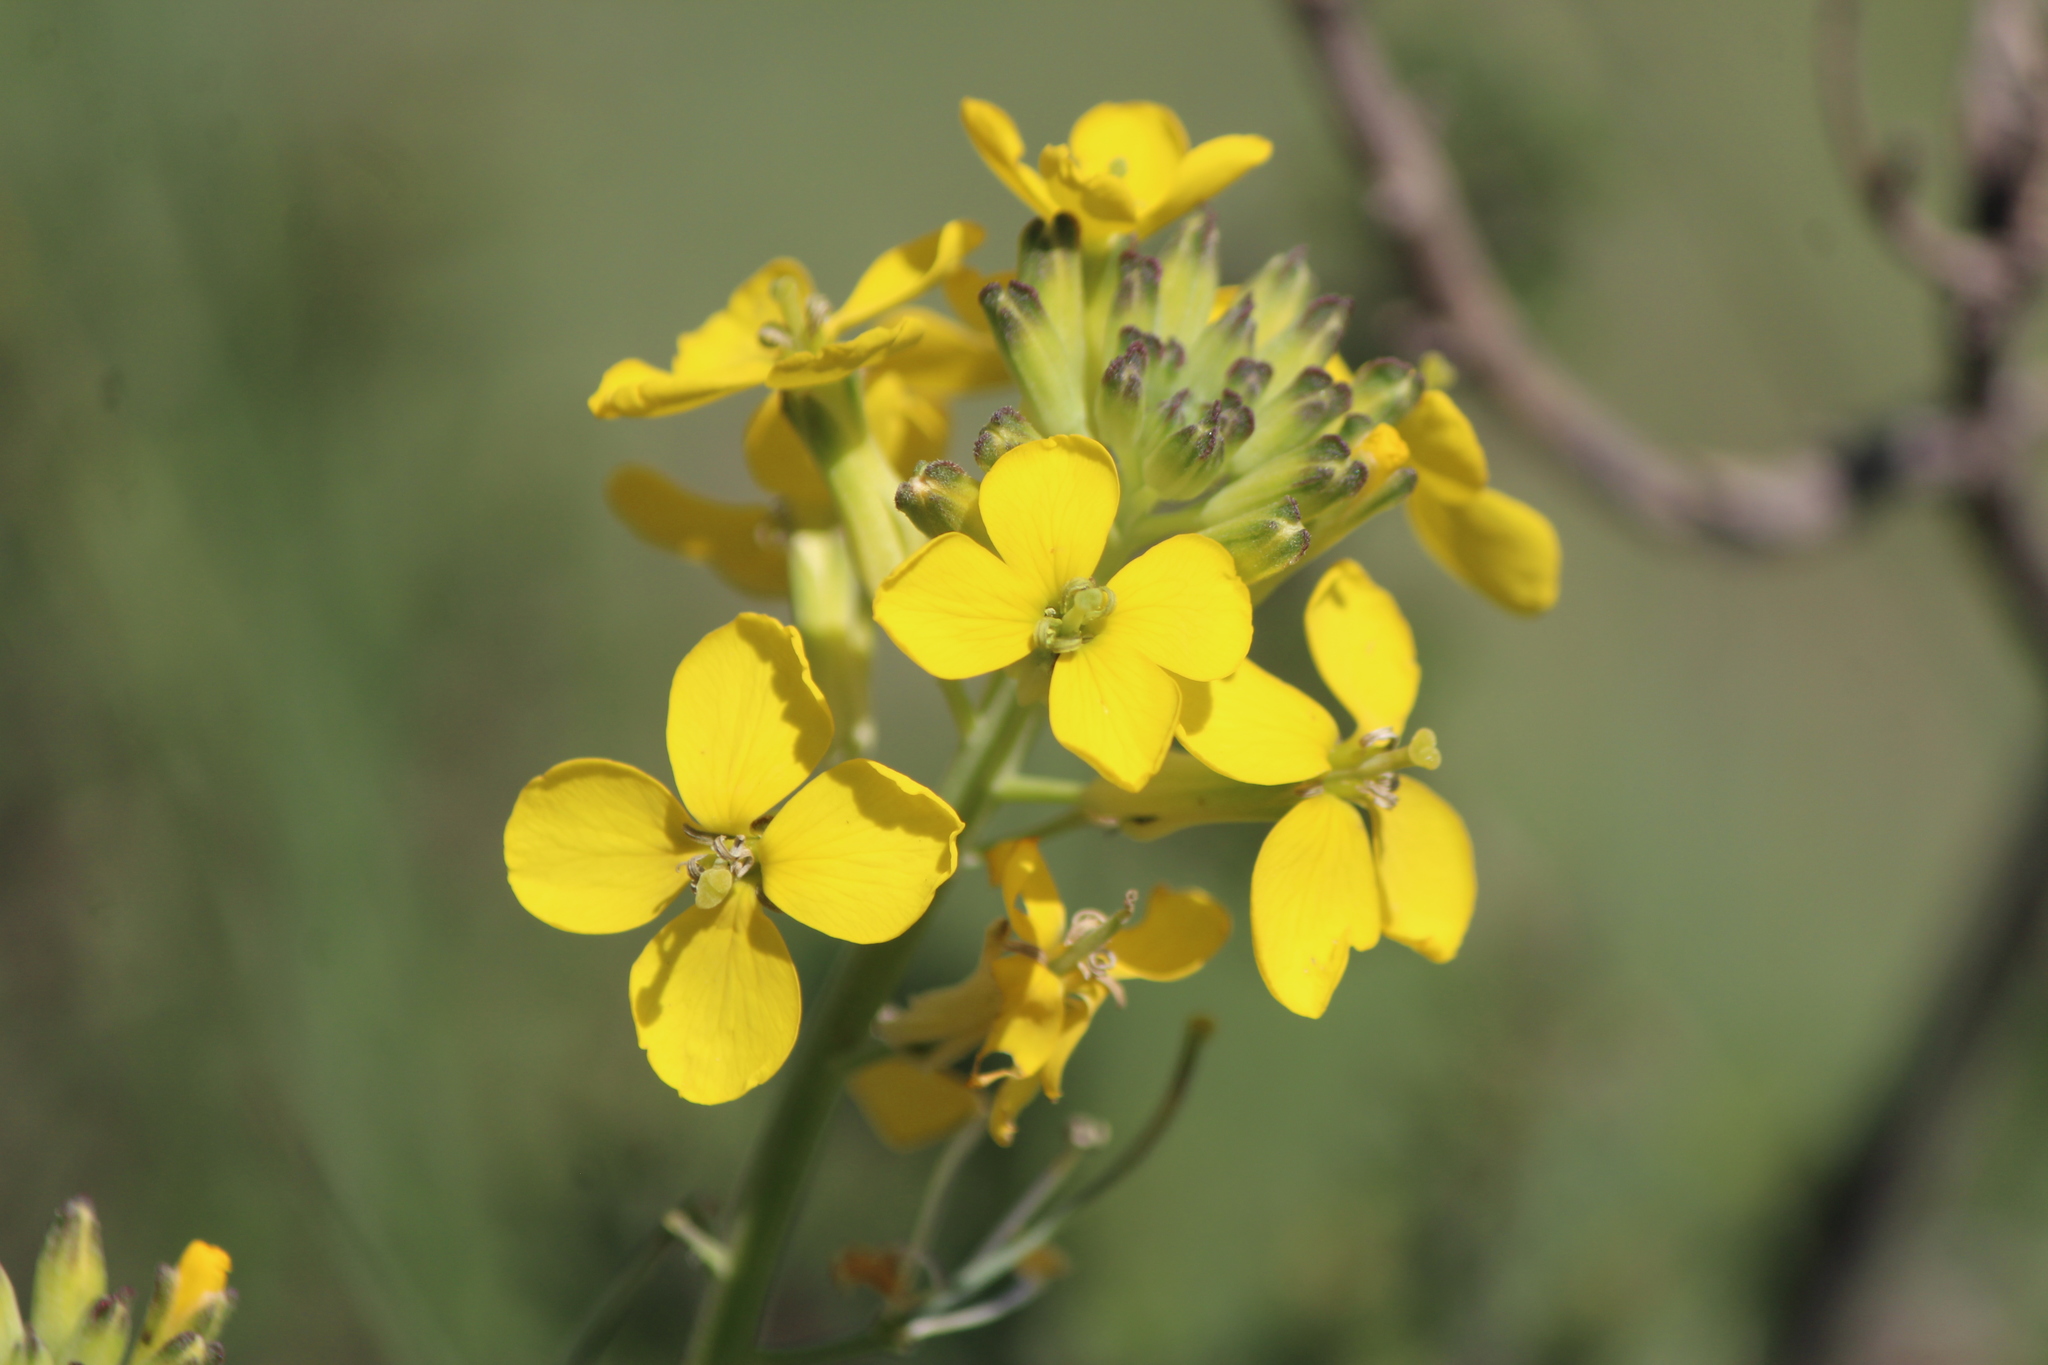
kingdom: Plantae
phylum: Tracheophyta
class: Magnoliopsida
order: Brassicales
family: Brassicaceae
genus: Erysimum
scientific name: Erysimum capitatum
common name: Western wallflower
